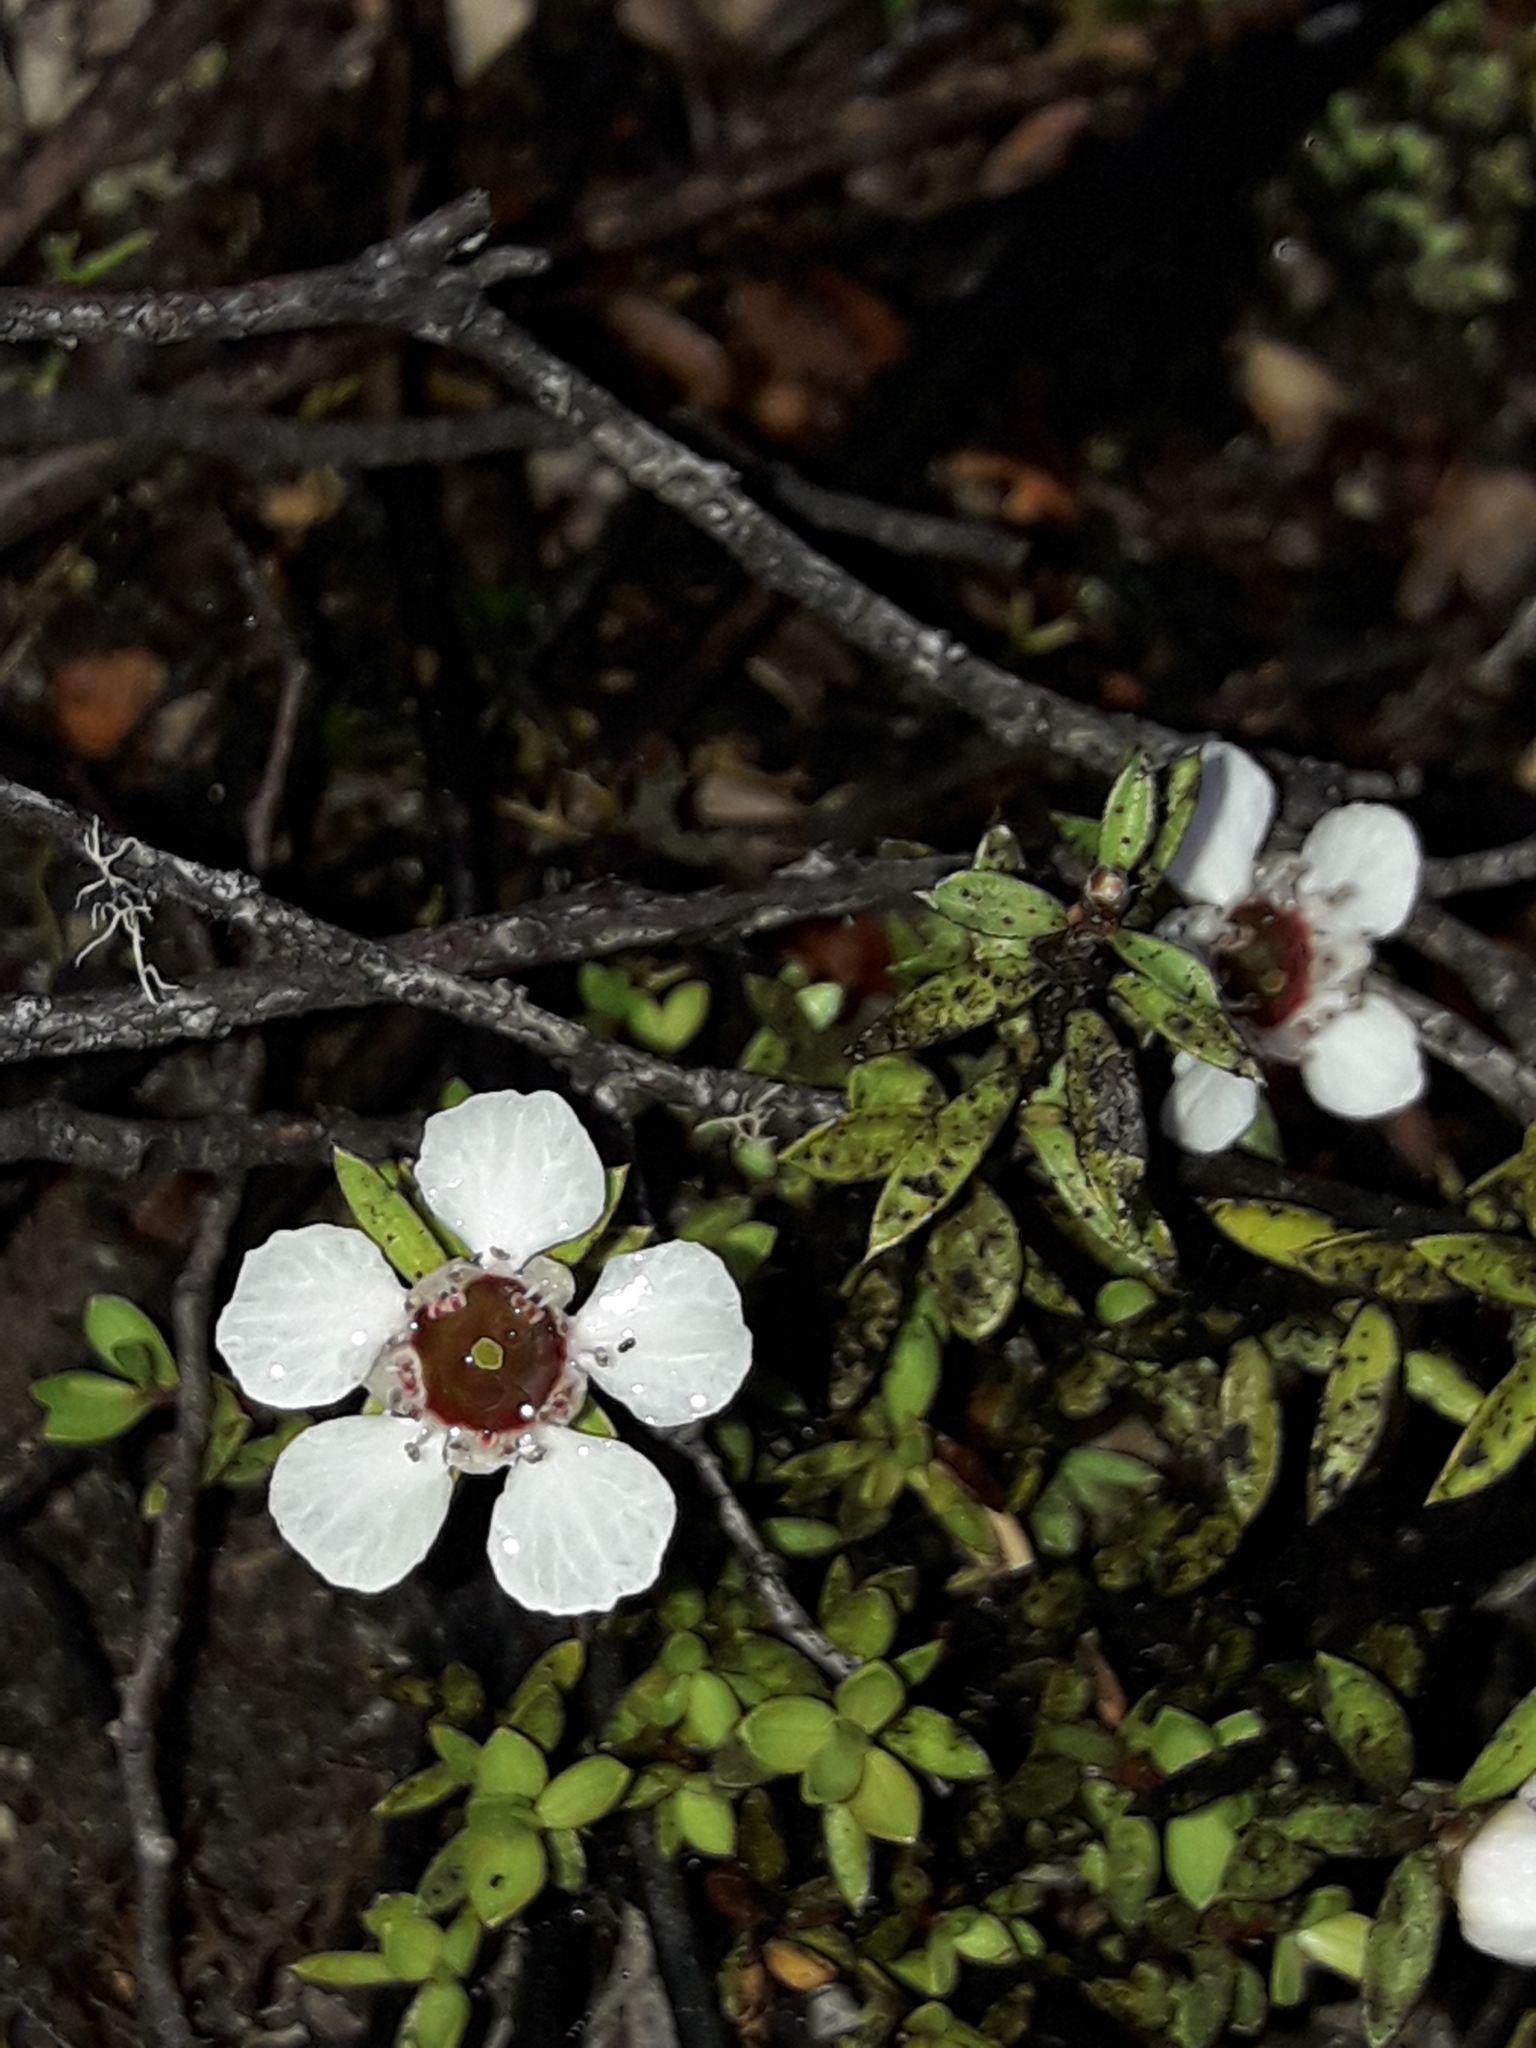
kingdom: Plantae
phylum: Tracheophyta
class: Magnoliopsida
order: Myrtales
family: Myrtaceae
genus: Leptospermum
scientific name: Leptospermum scoparium
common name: Broom tea-tree
